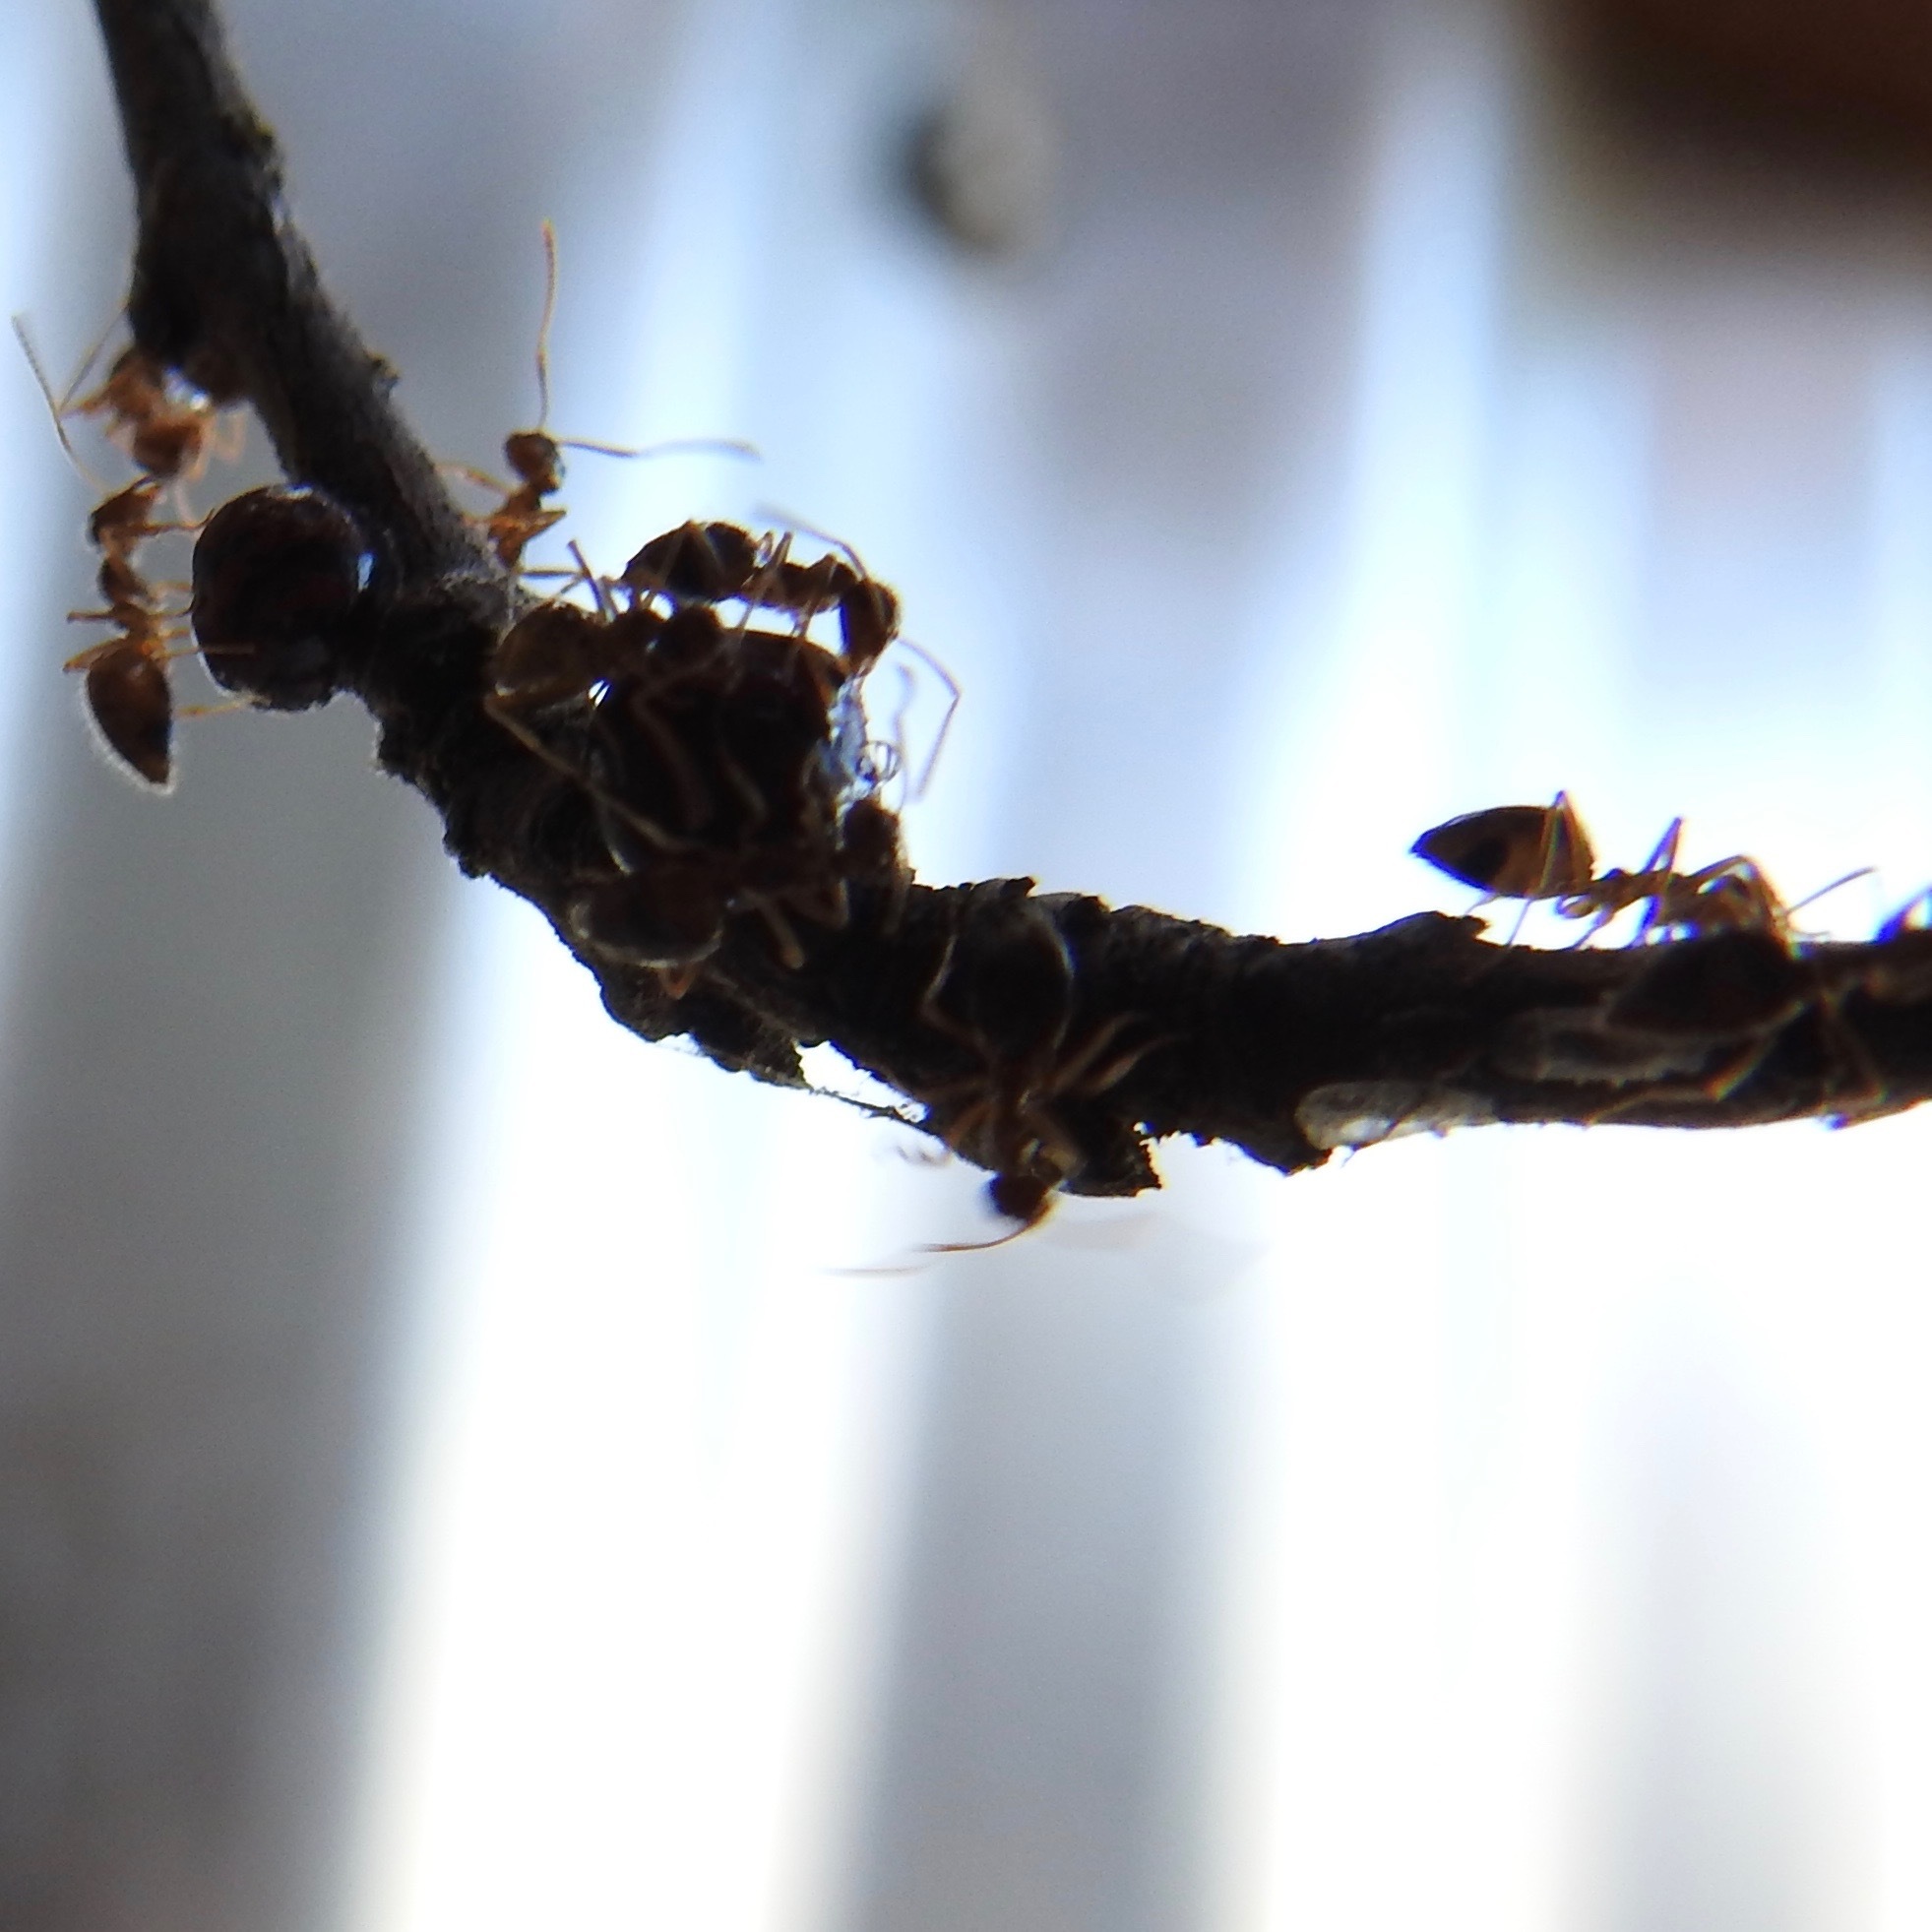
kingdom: Animalia
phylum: Arthropoda
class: Insecta
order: Hymenoptera
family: Formicidae
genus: Prenolepis
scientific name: Prenolepis imparis
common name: Small honey ant
